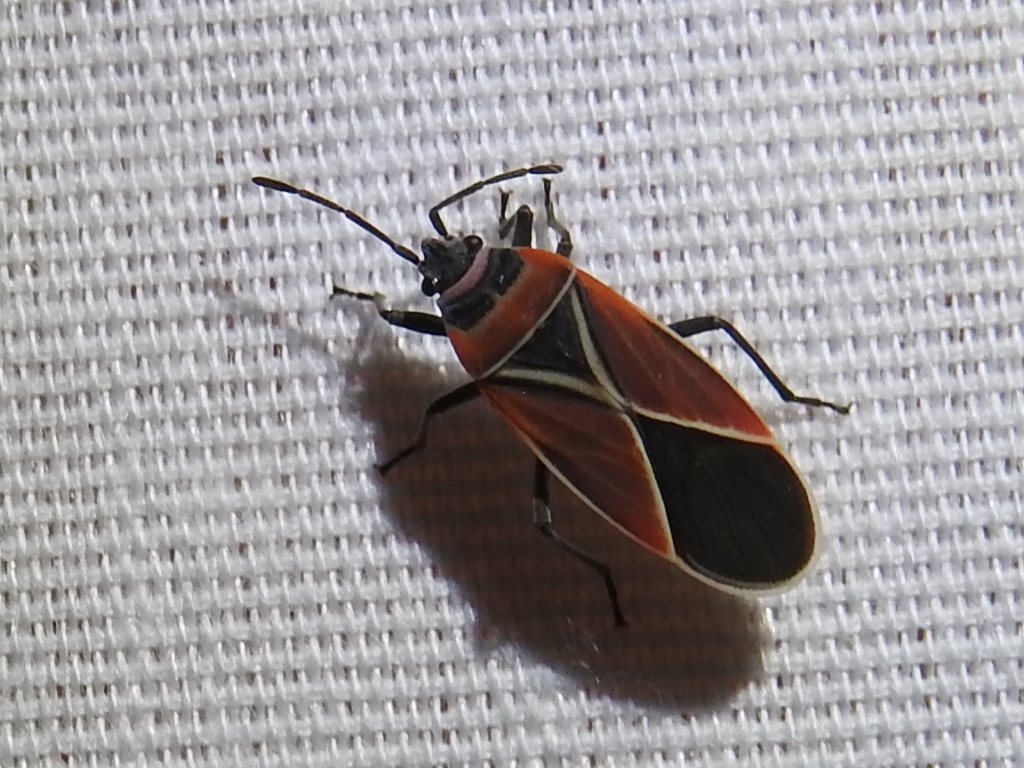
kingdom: Animalia
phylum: Arthropoda
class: Insecta
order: Hemiptera
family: Lygaeidae
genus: Neacoryphus
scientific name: Neacoryphus bicrucis
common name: Lygaeid bug
